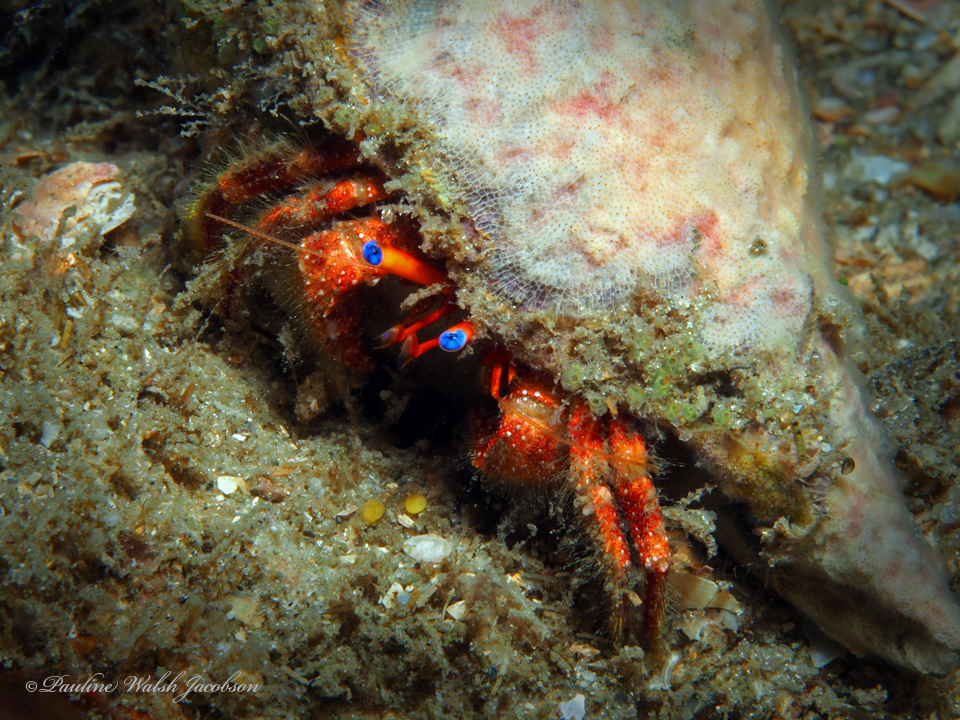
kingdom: Animalia
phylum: Arthropoda
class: Malacostraca
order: Decapoda
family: Diogenidae
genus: Paguristes
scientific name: Paguristes sericeus
